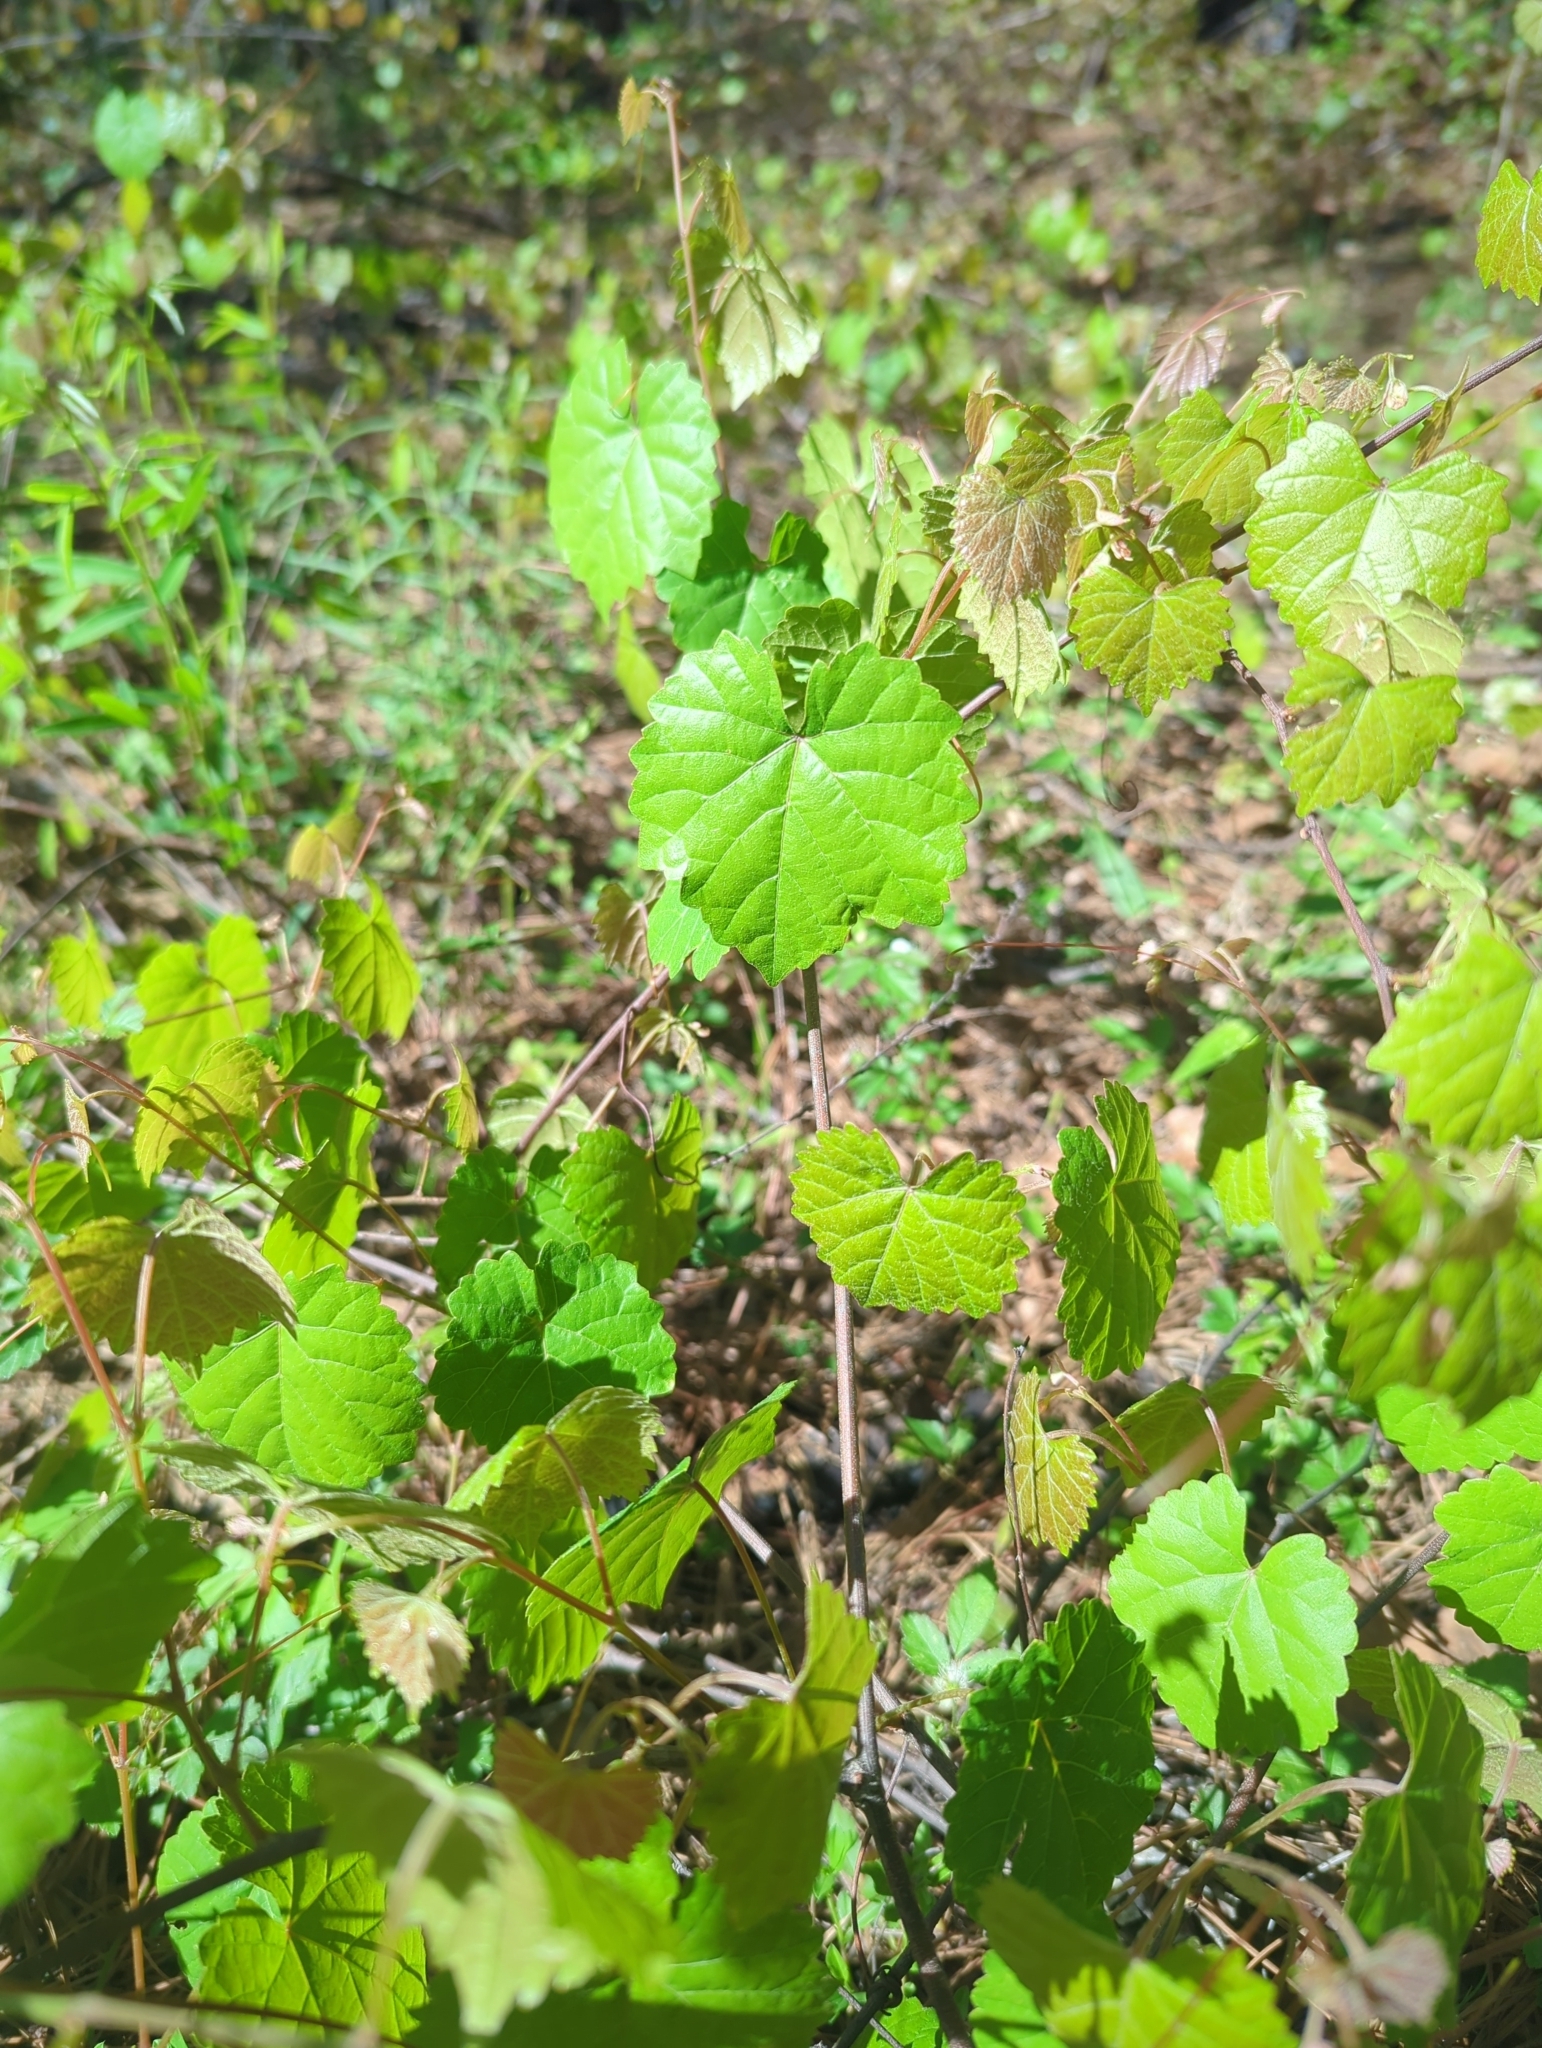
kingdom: Plantae
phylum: Tracheophyta
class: Magnoliopsida
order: Vitales
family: Vitaceae
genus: Vitis
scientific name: Vitis rotundifolia
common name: Muscadine grape
